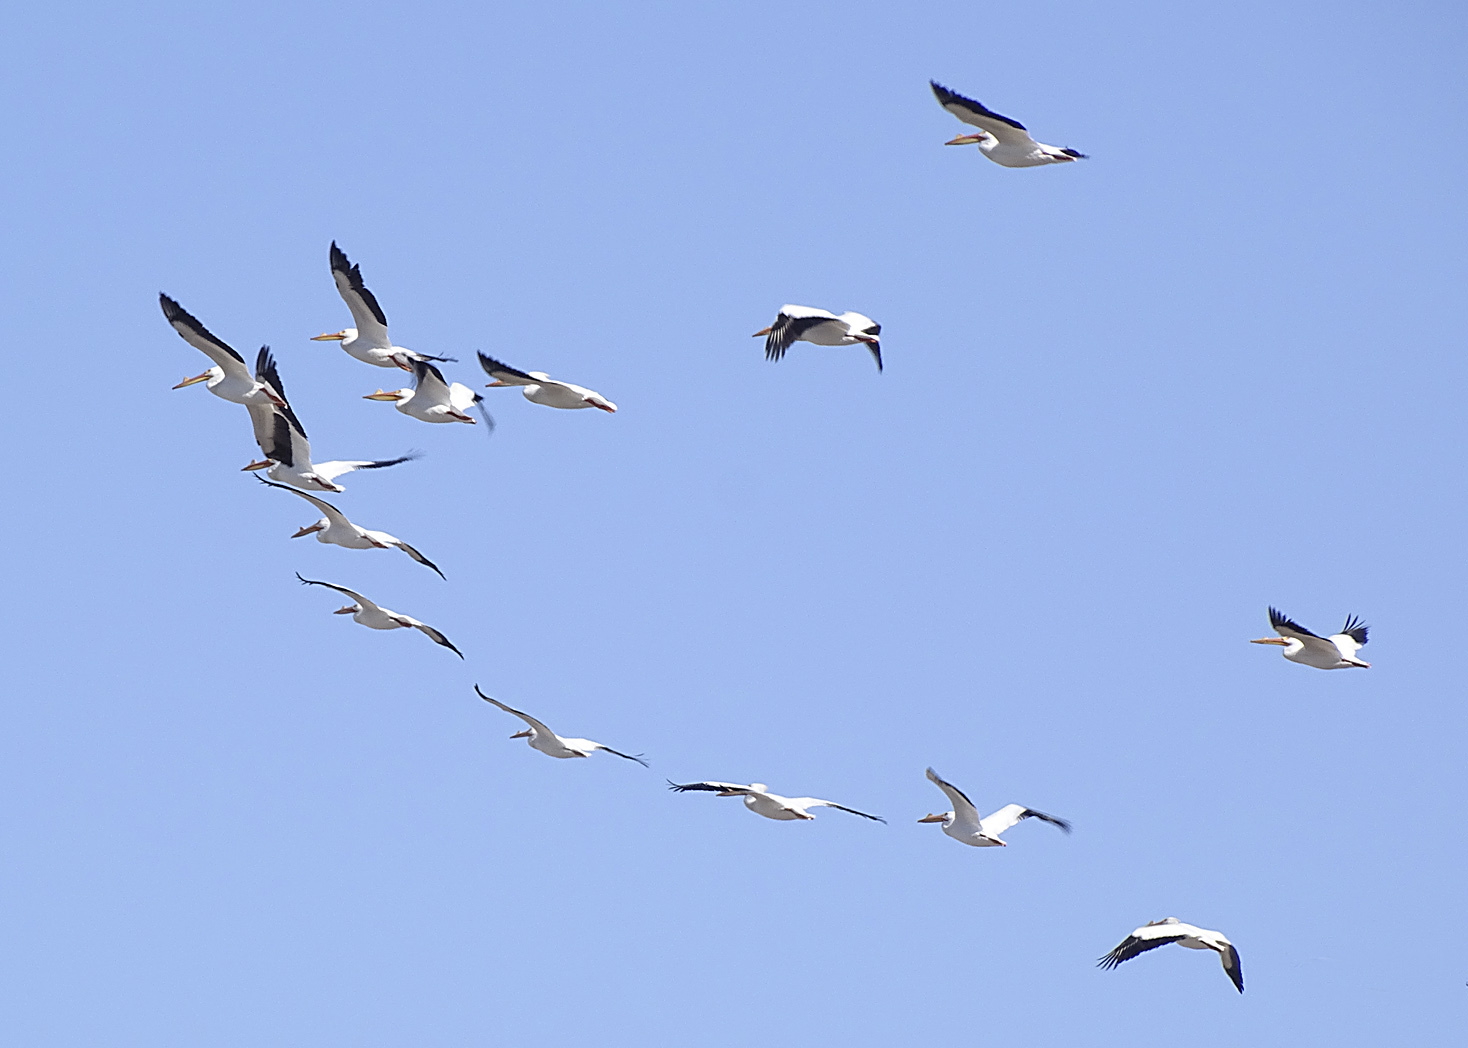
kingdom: Animalia
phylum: Chordata
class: Aves
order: Pelecaniformes
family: Pelecanidae
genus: Pelecanus
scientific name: Pelecanus erythrorhynchos
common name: American white pelican
